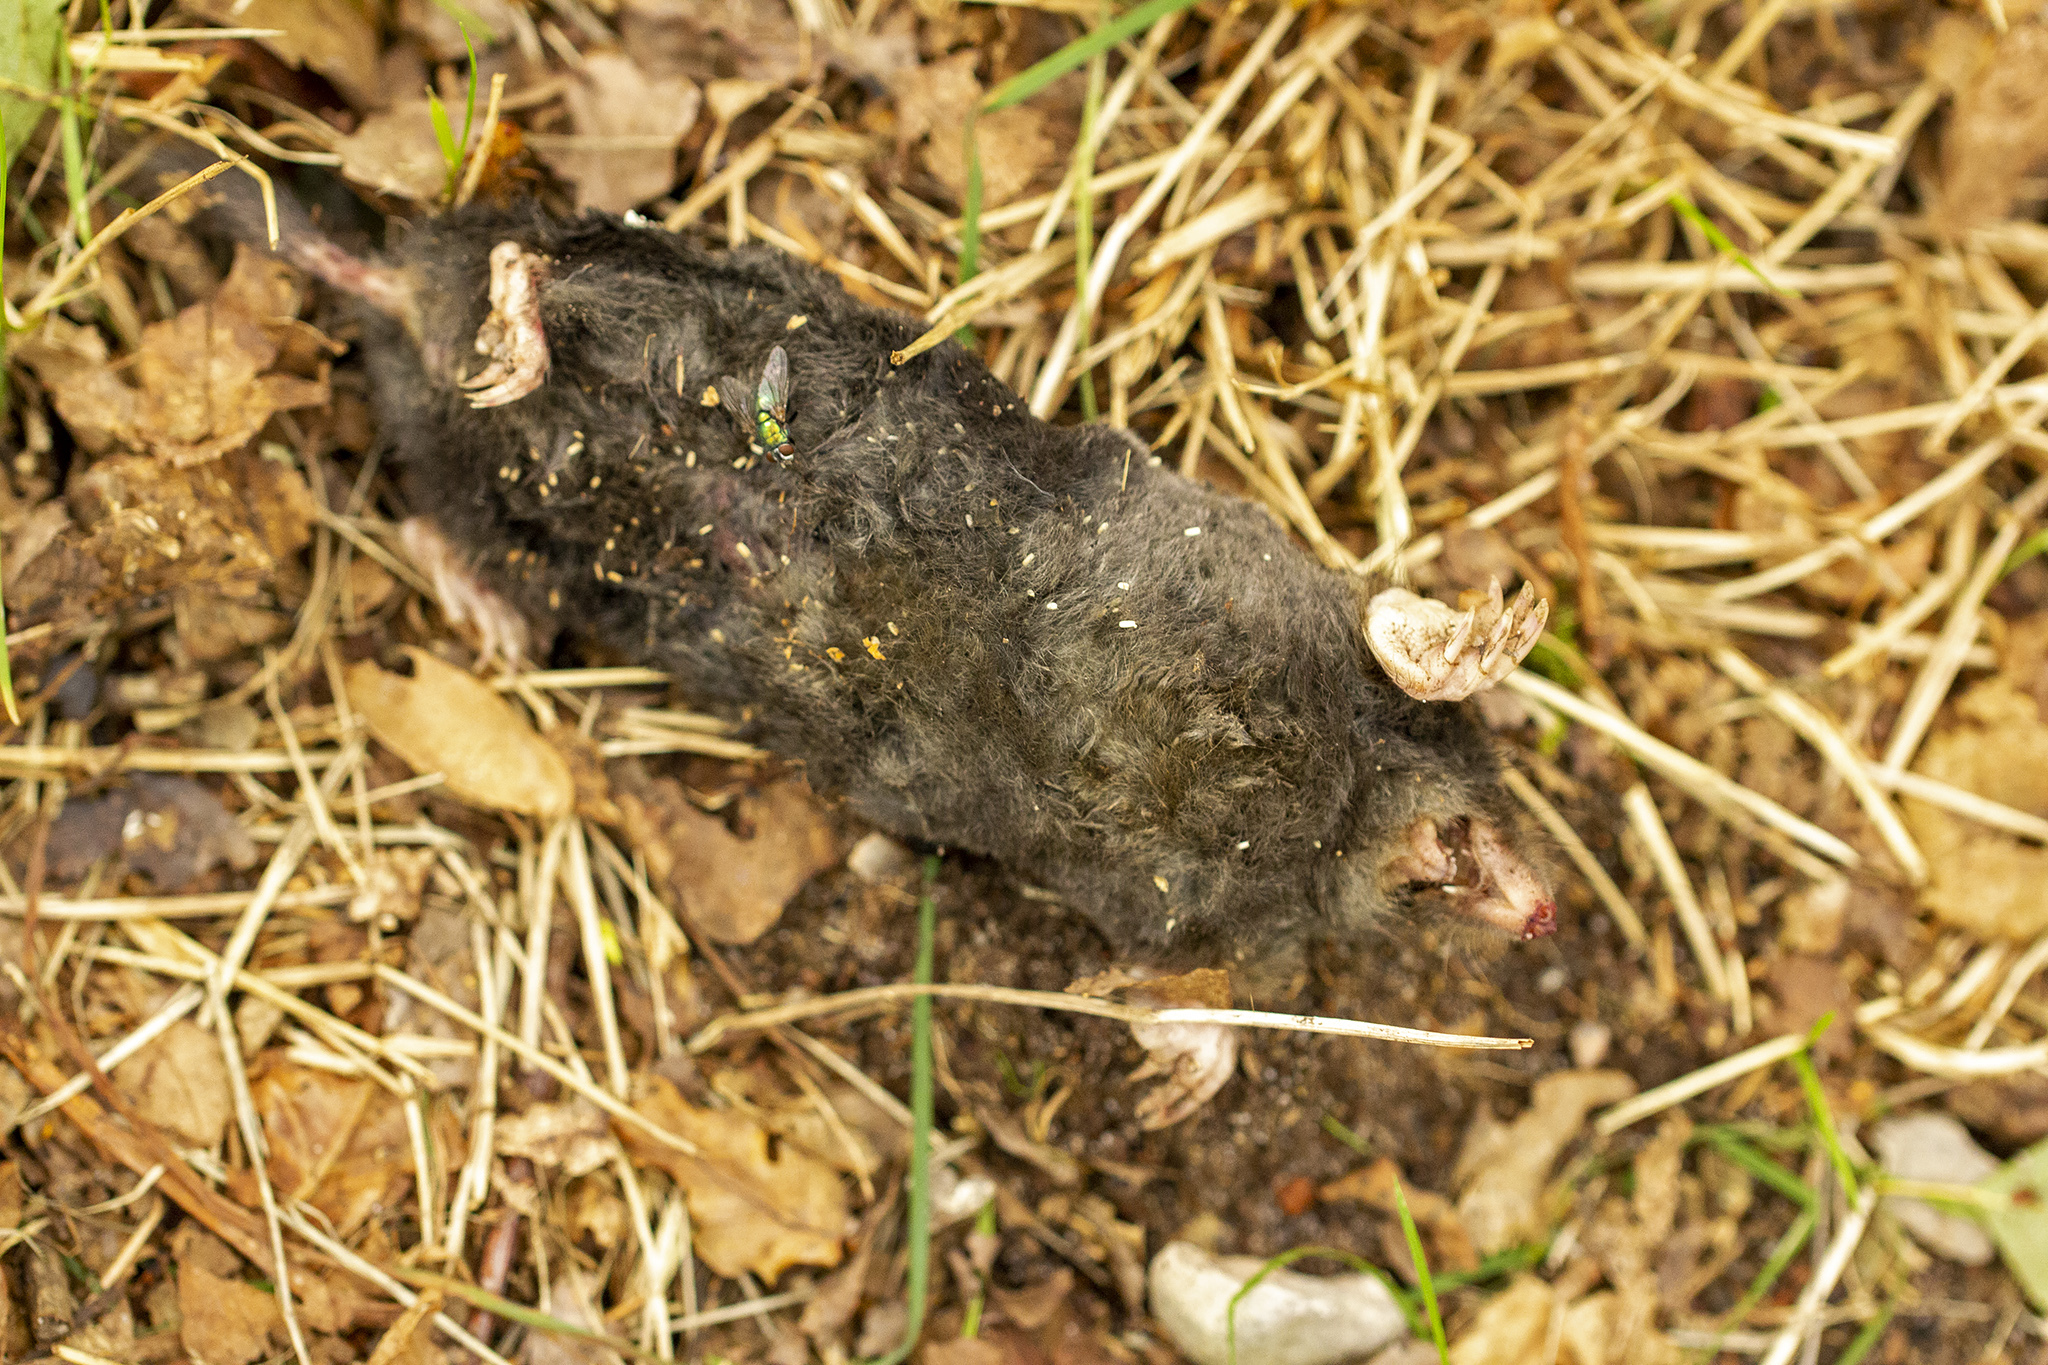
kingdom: Animalia
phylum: Chordata
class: Mammalia
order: Soricomorpha
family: Talpidae
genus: Talpa
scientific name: Talpa europaea
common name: European mole
